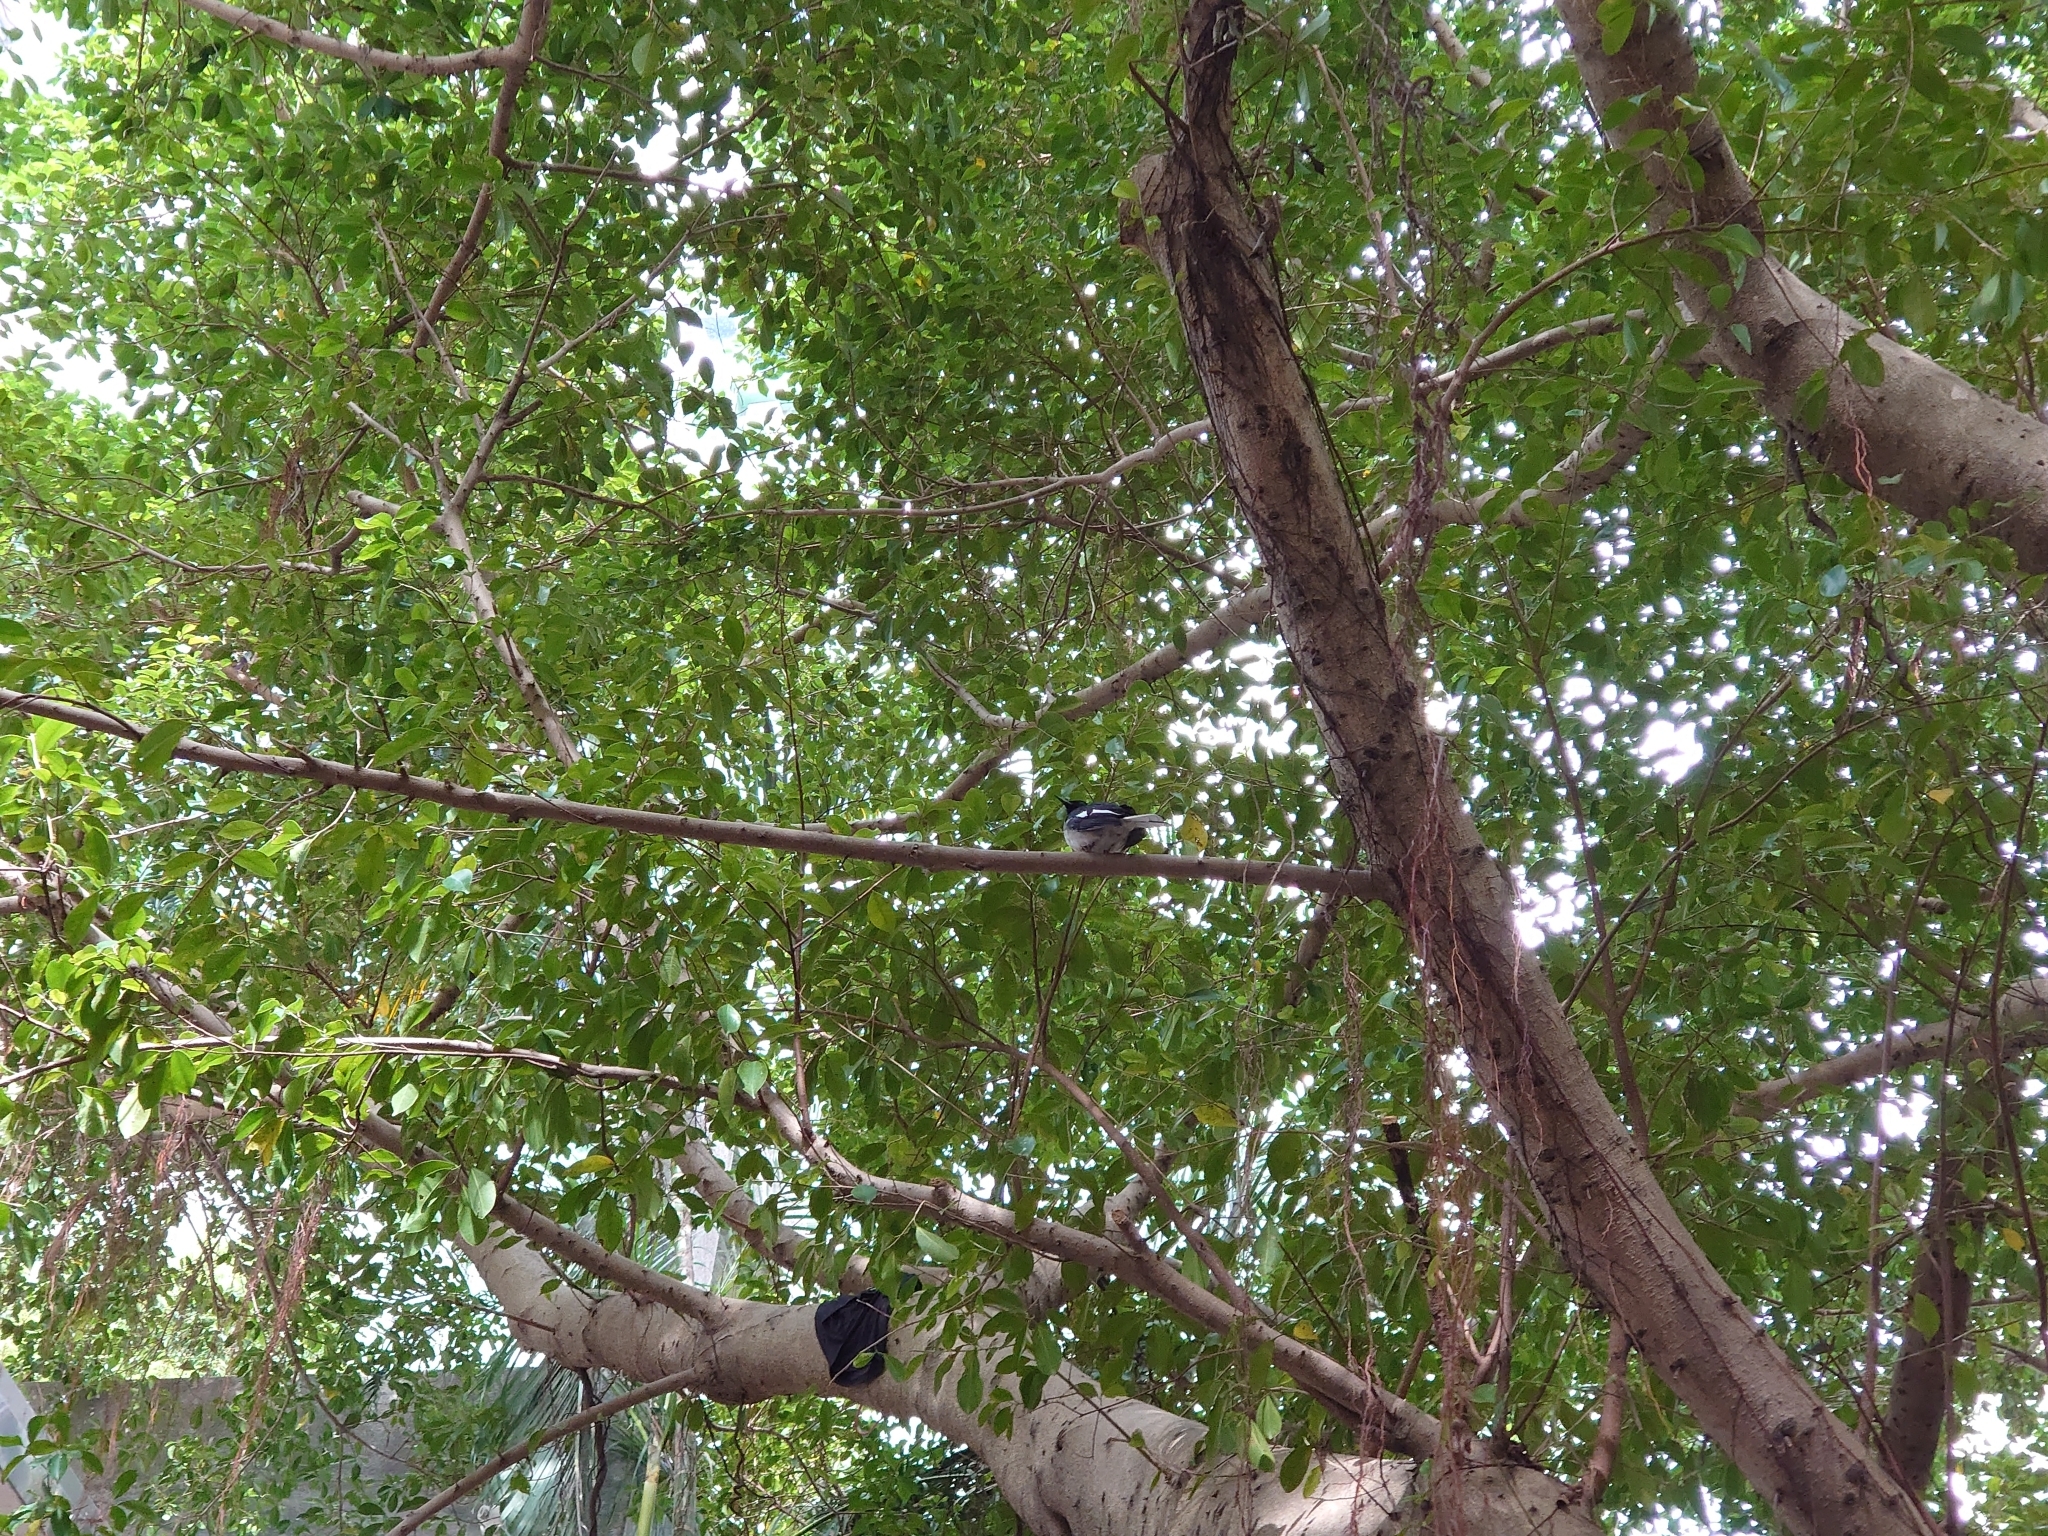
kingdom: Animalia
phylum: Chordata
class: Aves
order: Passeriformes
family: Muscicapidae
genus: Copsychus
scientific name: Copsychus saularis
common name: Oriental magpie-robin
